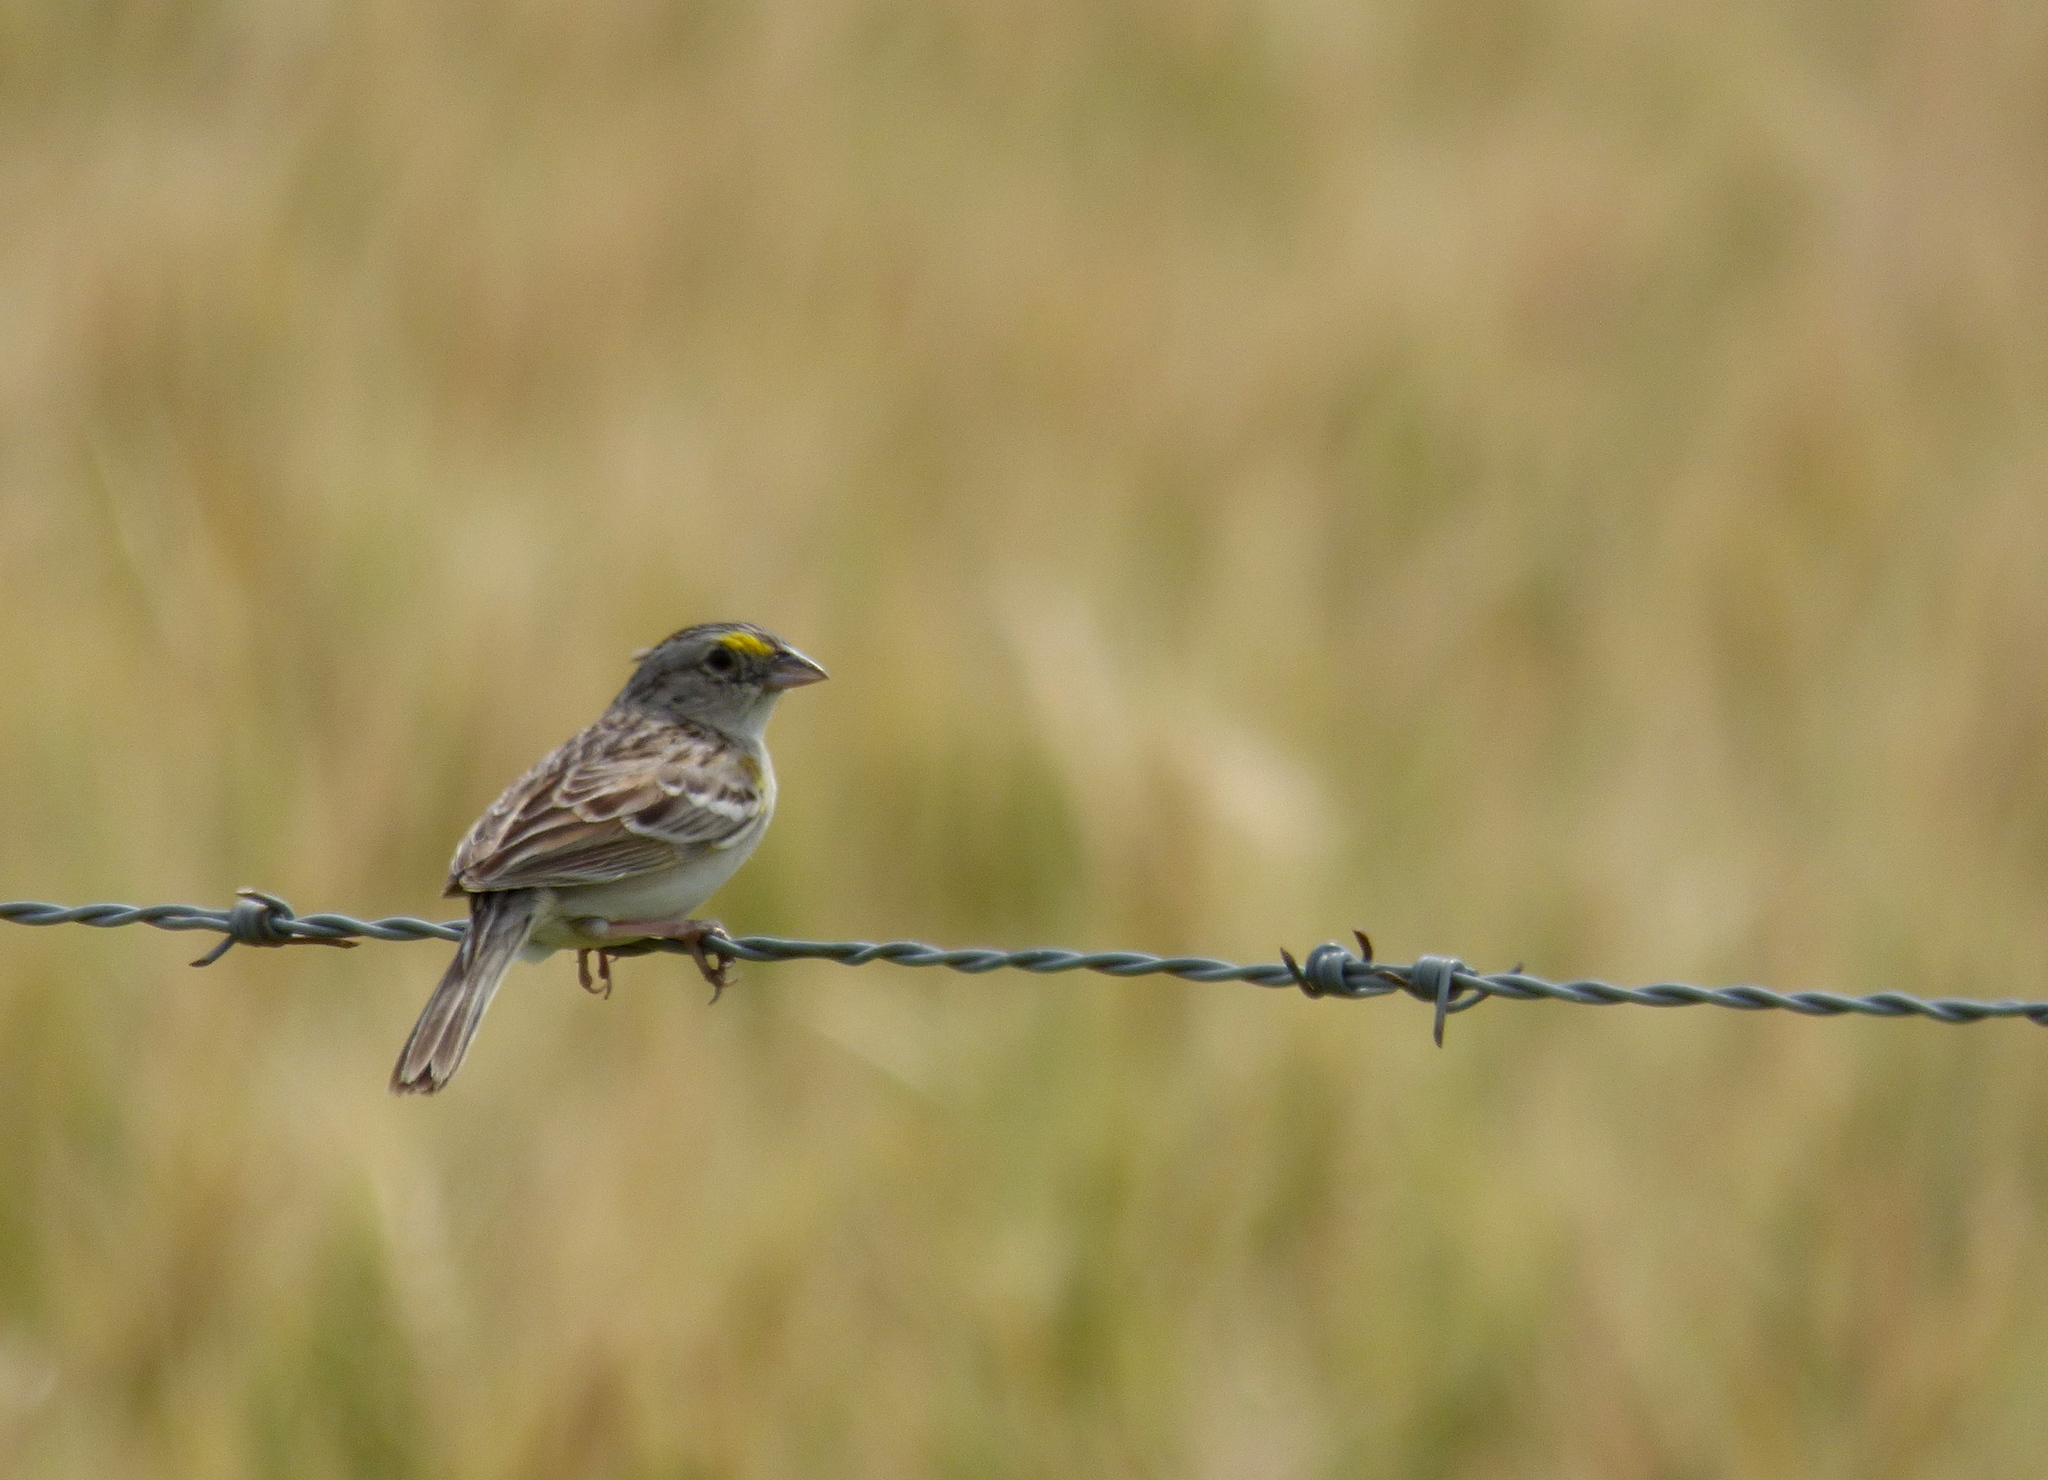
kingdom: Animalia
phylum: Chordata
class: Aves
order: Passeriformes
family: Passerellidae
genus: Ammodramus
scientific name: Ammodramus humeralis
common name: Grassland sparrow
